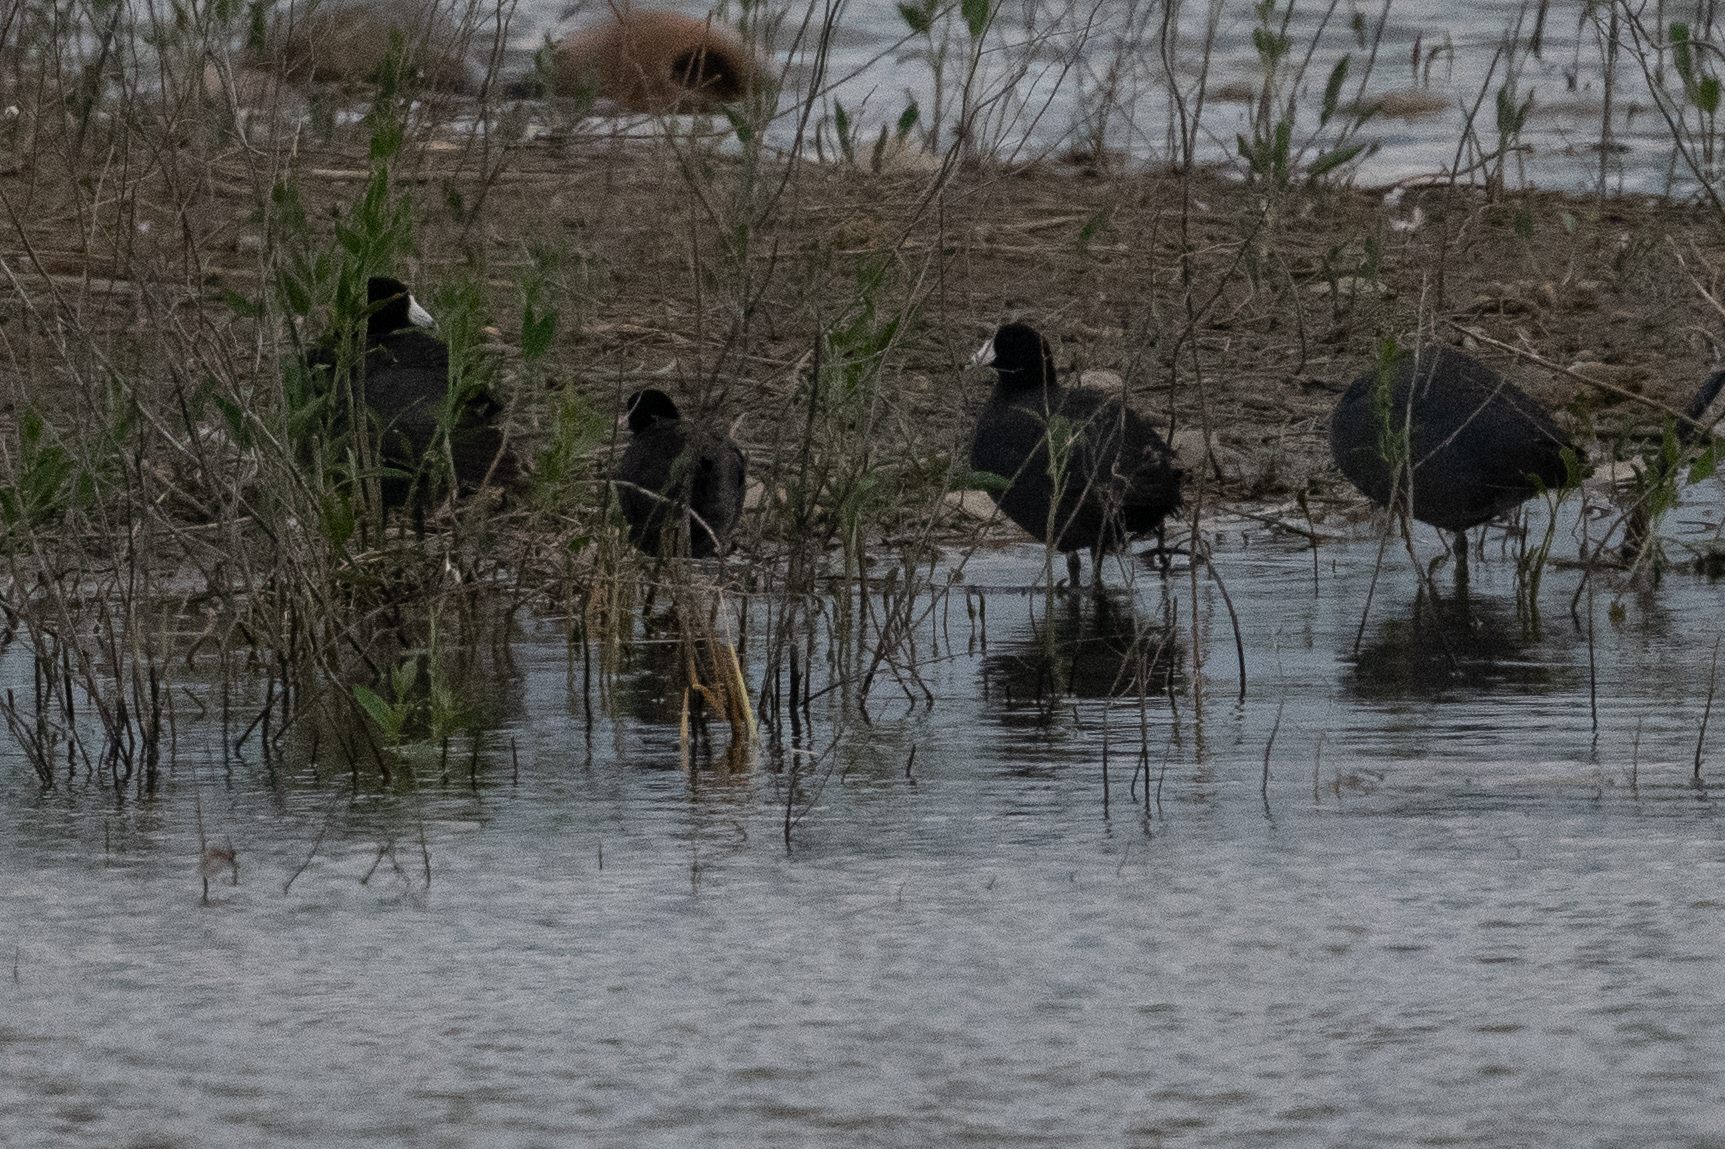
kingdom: Animalia
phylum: Chordata
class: Aves
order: Gruiformes
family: Rallidae
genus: Fulica
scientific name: Fulica americana
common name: American coot
